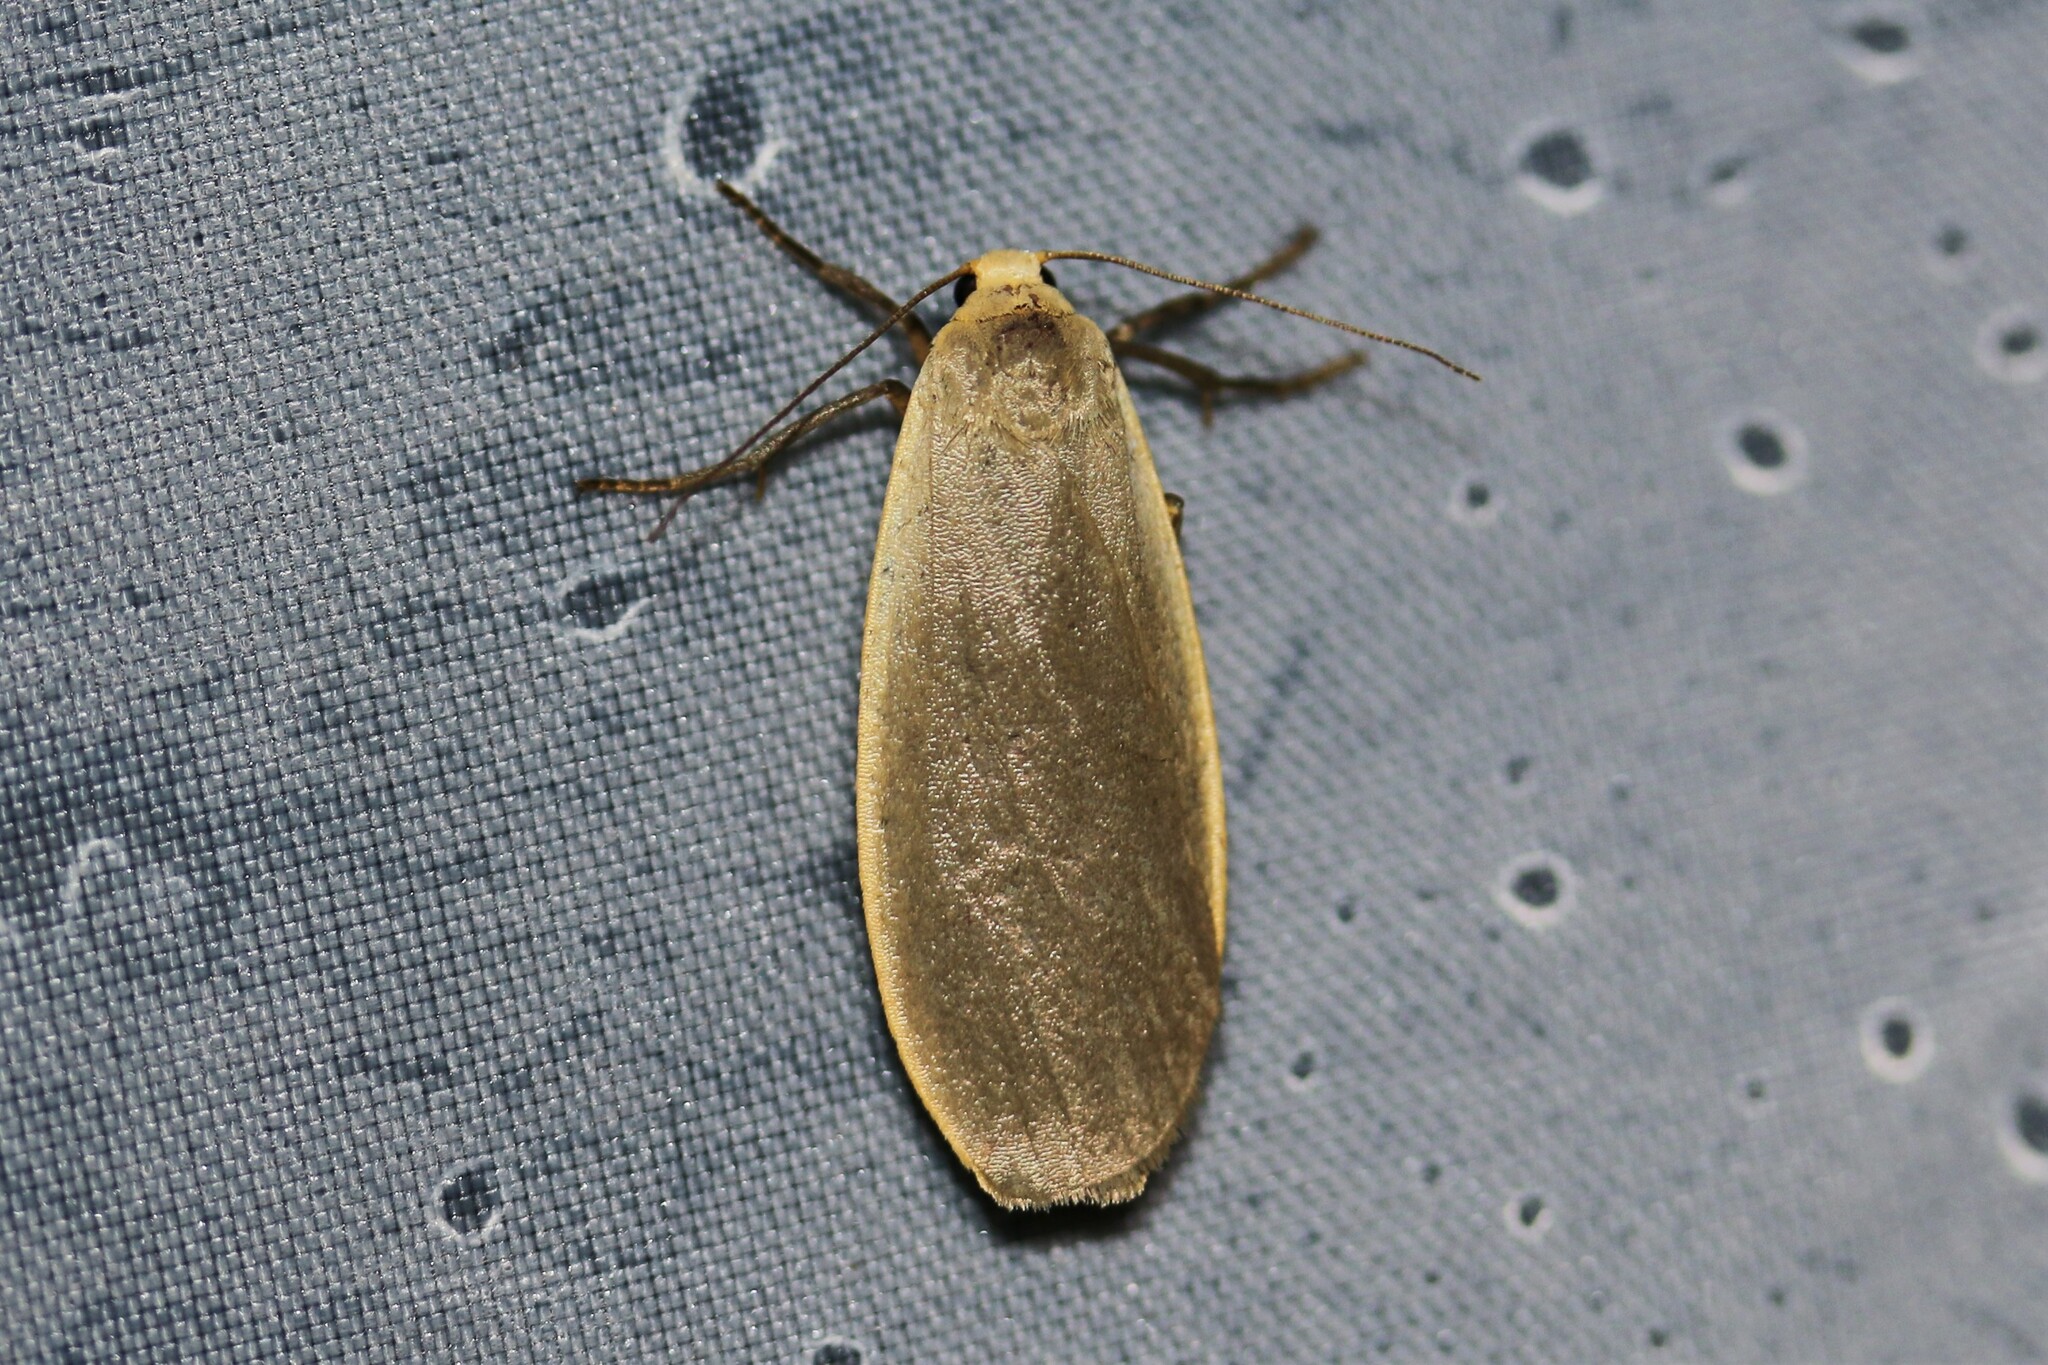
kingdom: Animalia
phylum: Arthropoda
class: Insecta
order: Lepidoptera
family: Erebidae
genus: Collita
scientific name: Collita griseola
